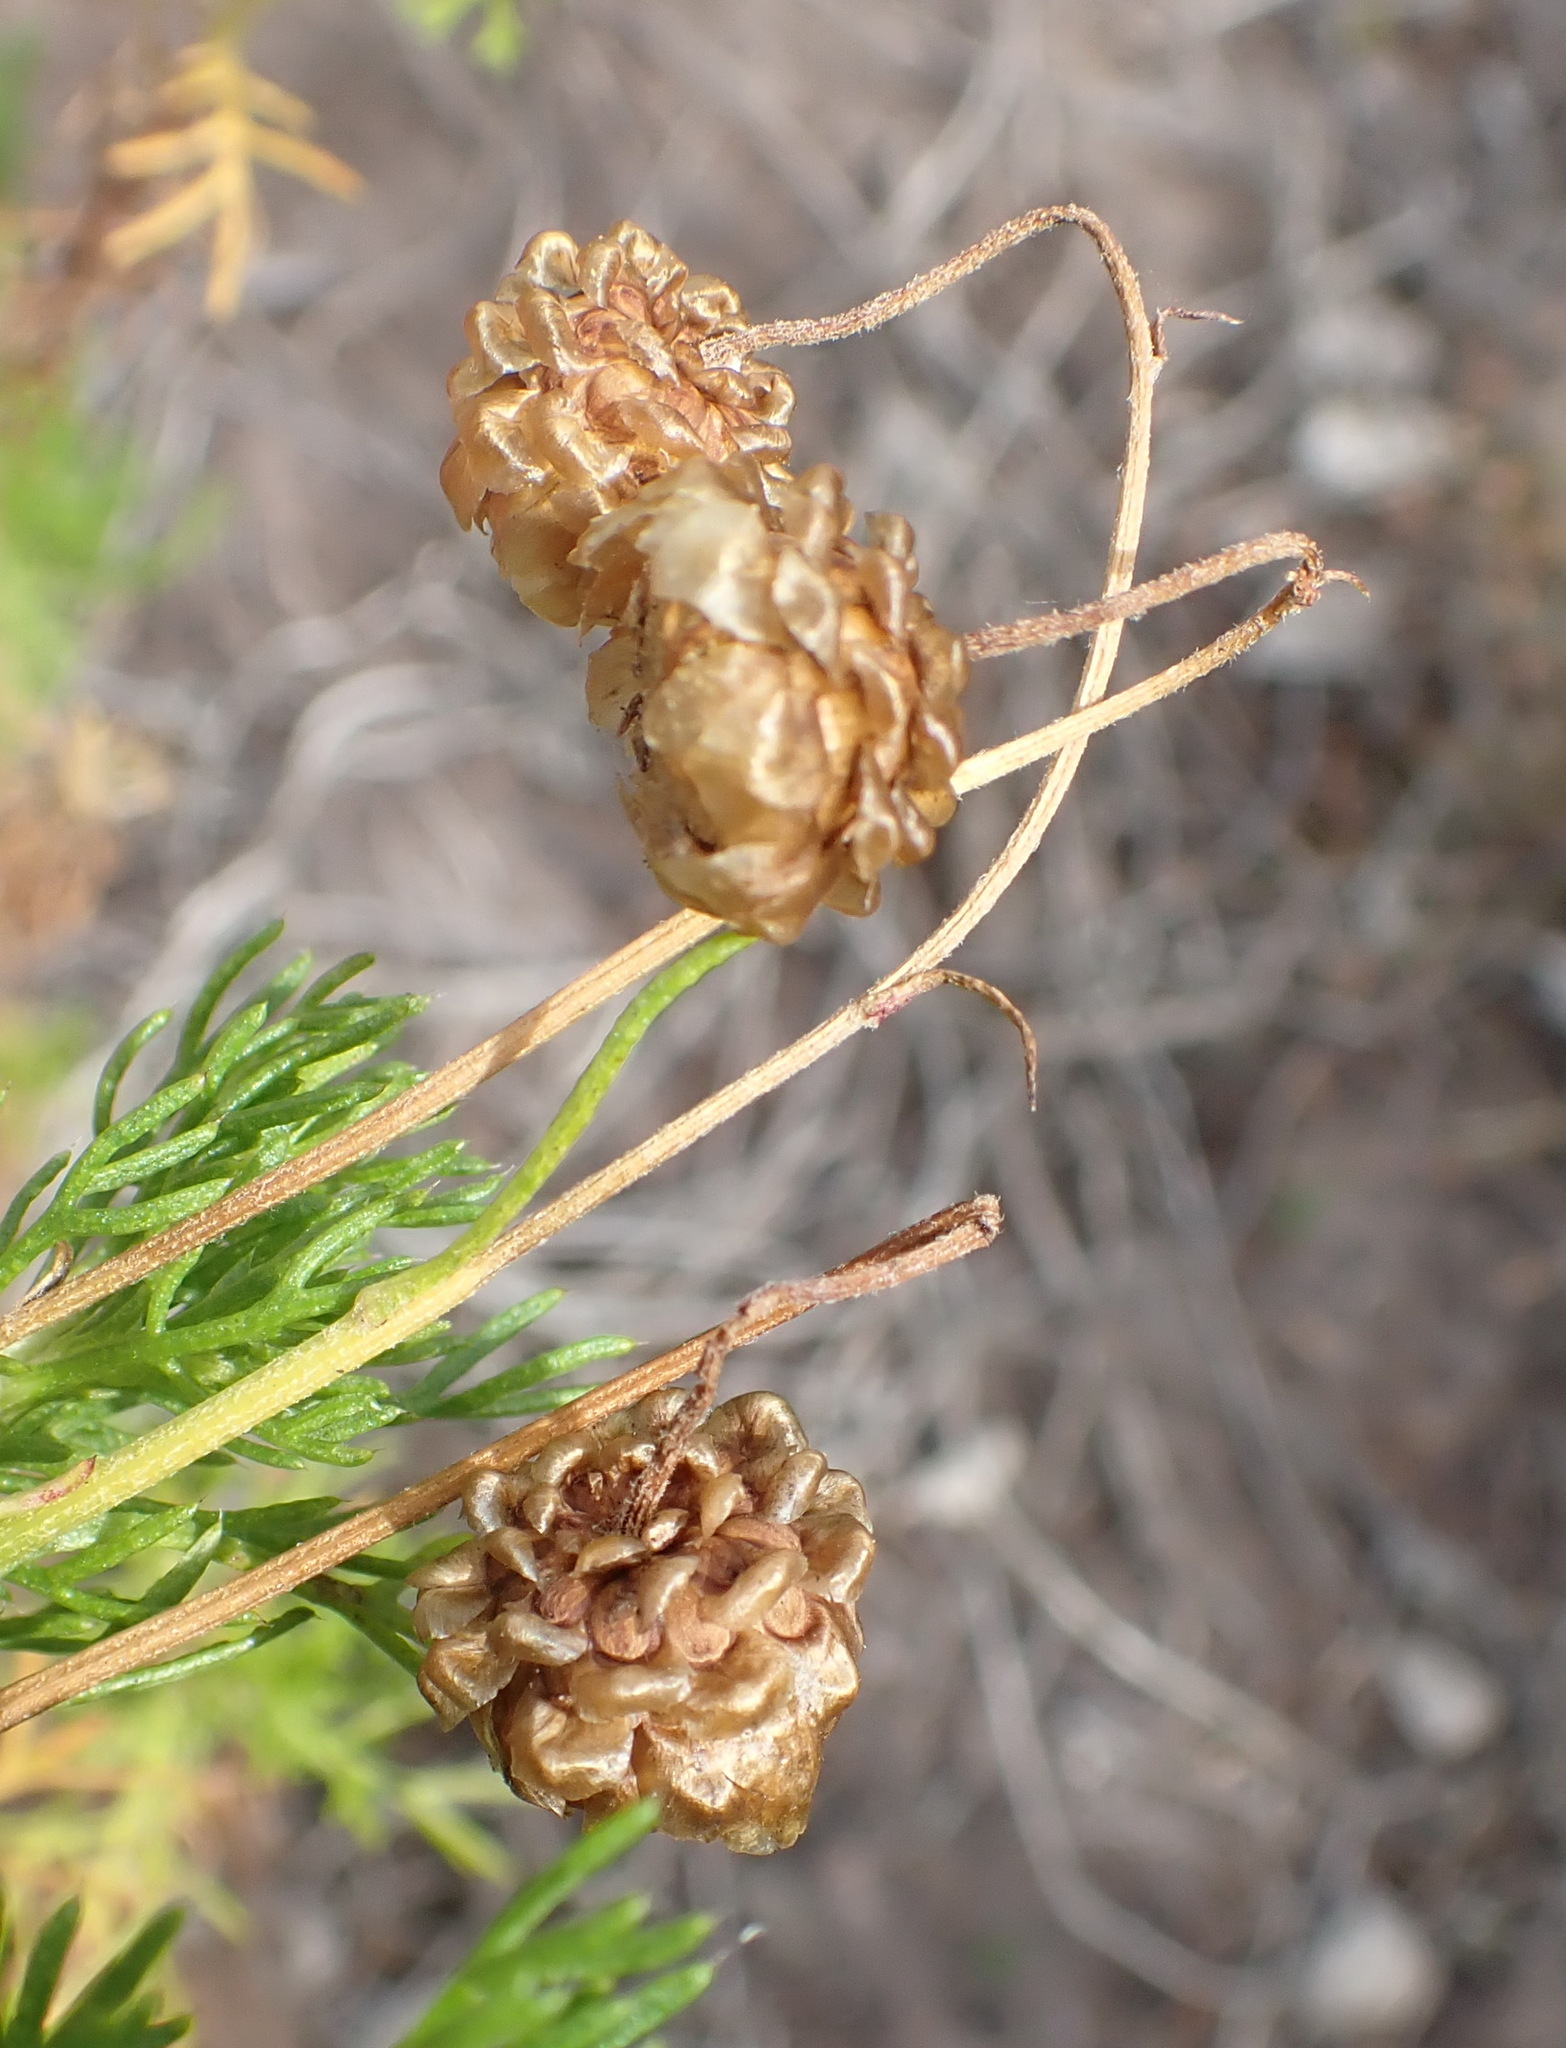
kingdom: Plantae
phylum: Tracheophyta
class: Magnoliopsida
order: Asterales
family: Asteraceae
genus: Ursinia
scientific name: Ursinia scariosa
